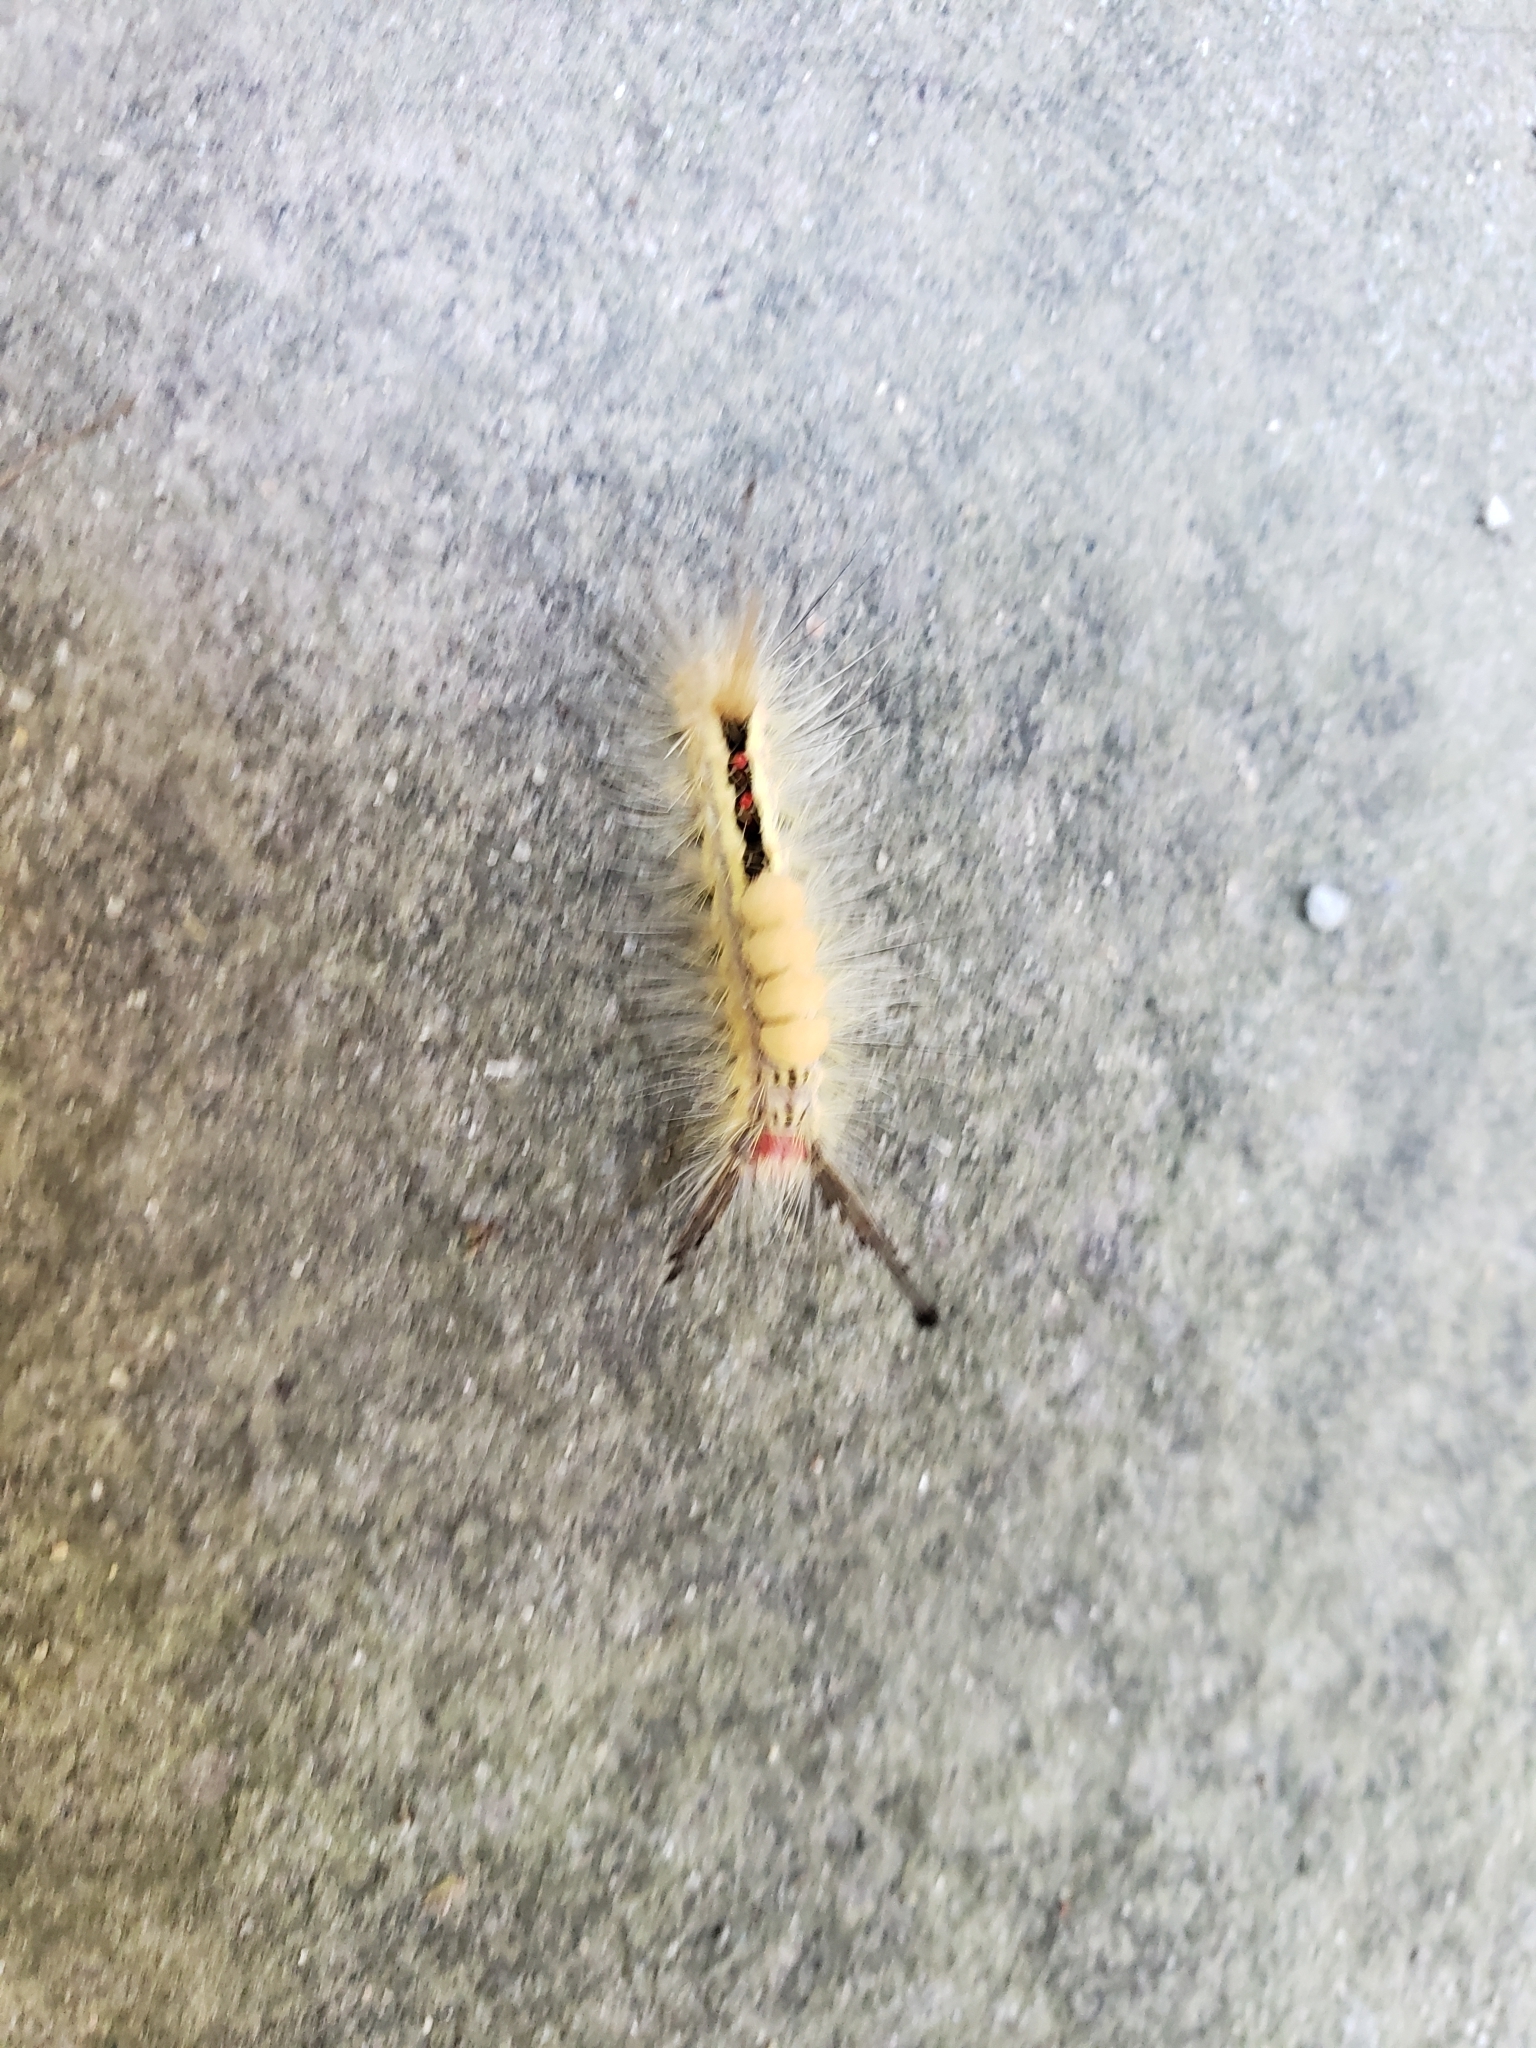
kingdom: Animalia
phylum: Arthropoda
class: Insecta
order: Lepidoptera
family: Erebidae
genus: Orgyia
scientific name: Orgyia leucostigma
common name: White-marked tussock moth
